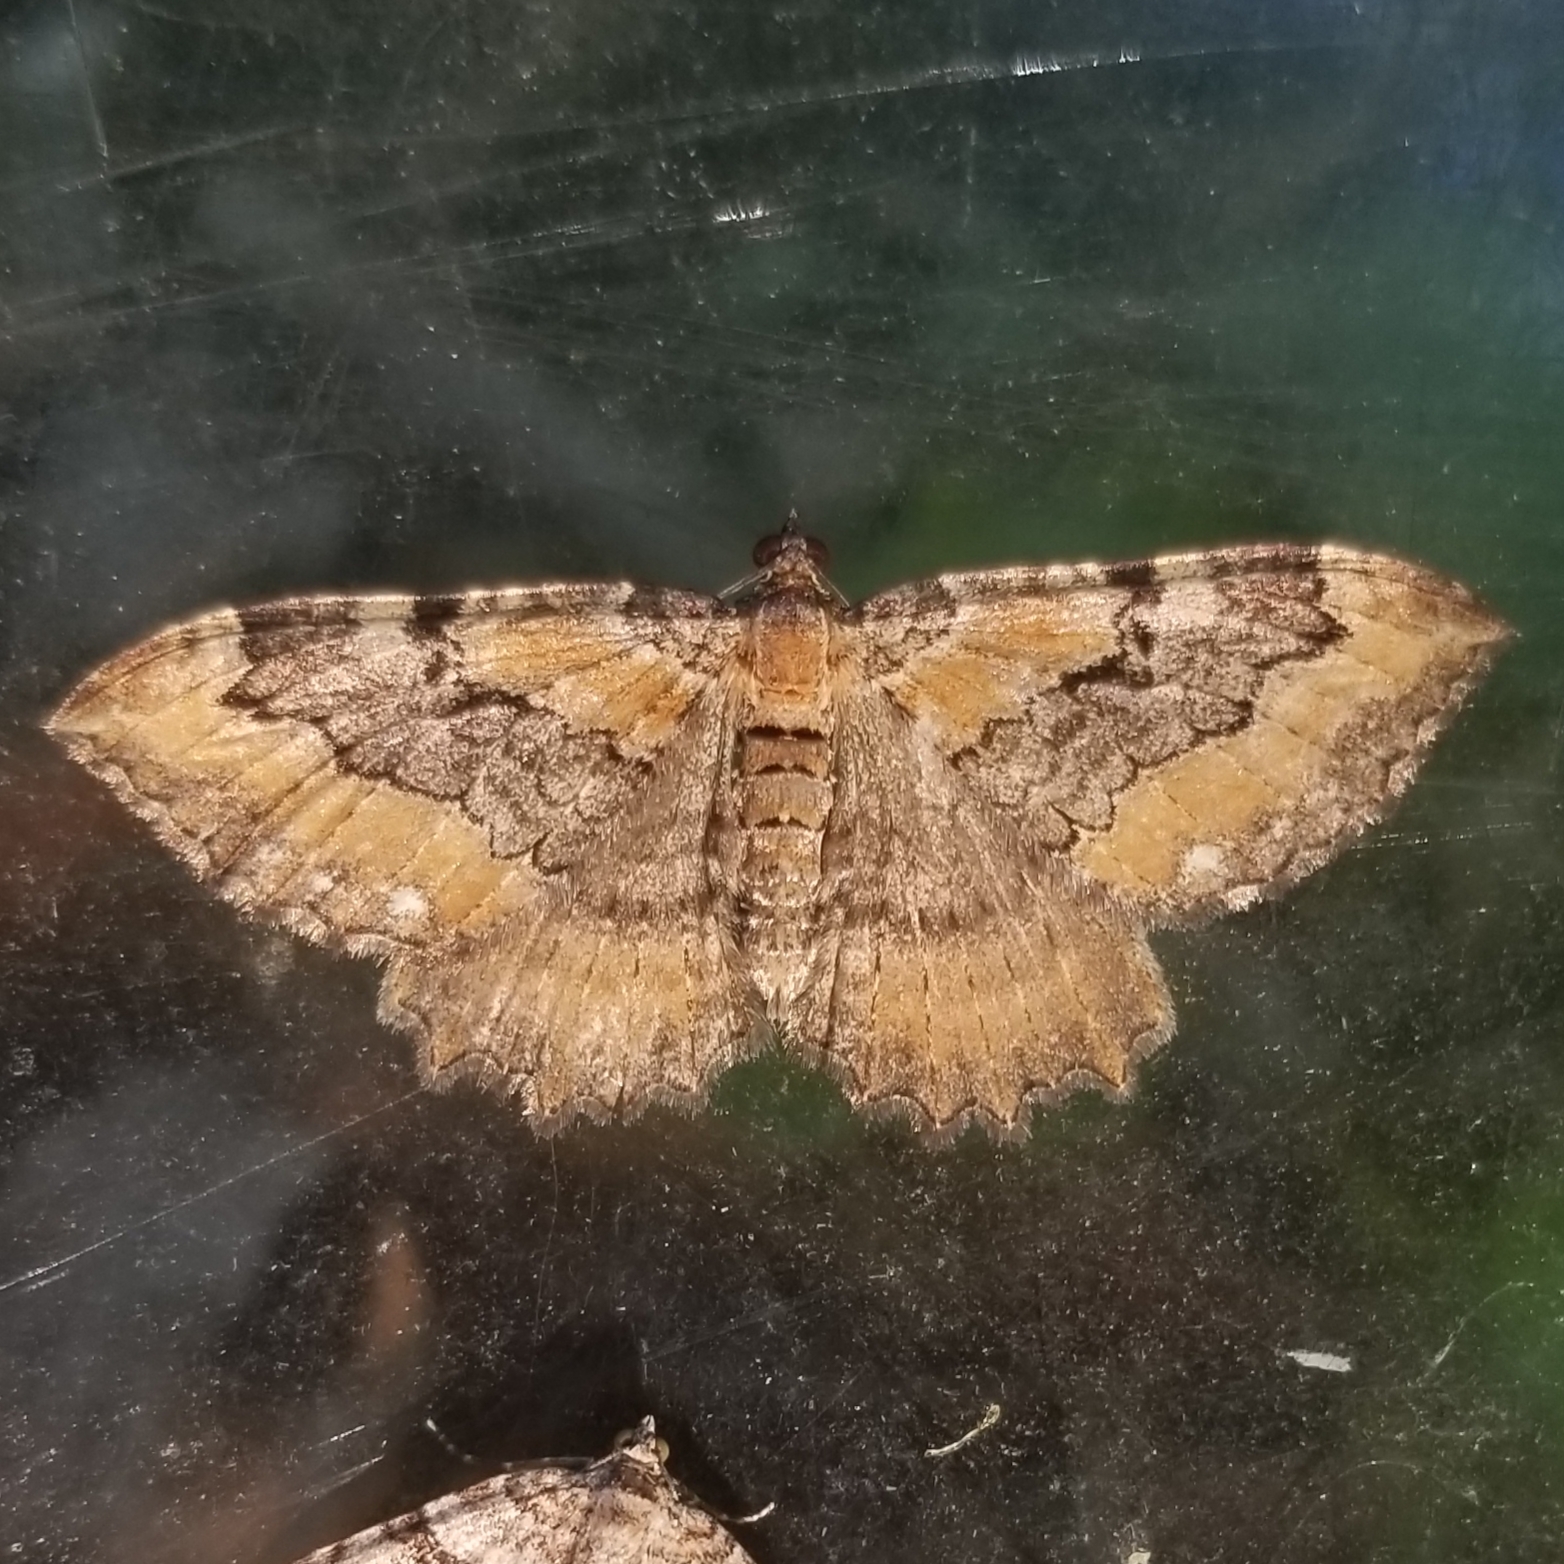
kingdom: Animalia
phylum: Arthropoda
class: Insecta
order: Lepidoptera
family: Geometridae
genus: Rheumaptera
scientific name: Rheumaptera
